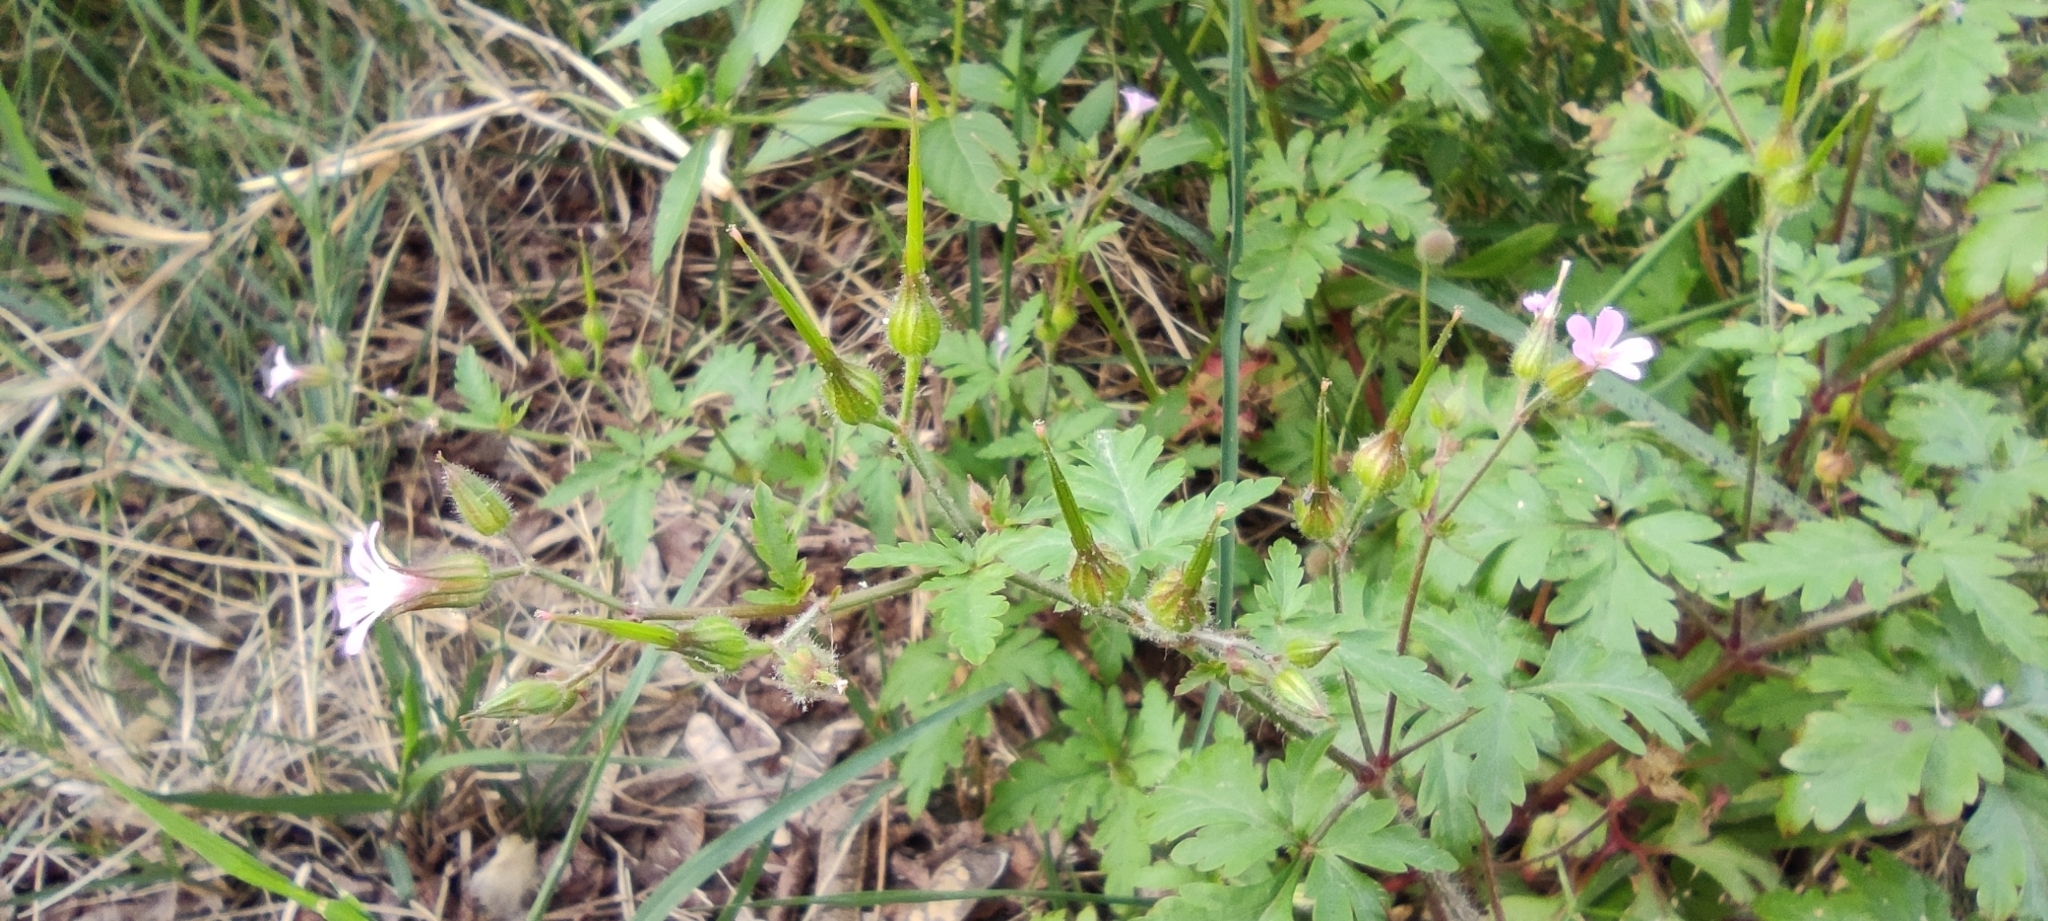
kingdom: Plantae
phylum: Tracheophyta
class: Magnoliopsida
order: Geraniales
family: Geraniaceae
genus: Geranium
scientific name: Geranium purpureum
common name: Little-robin
